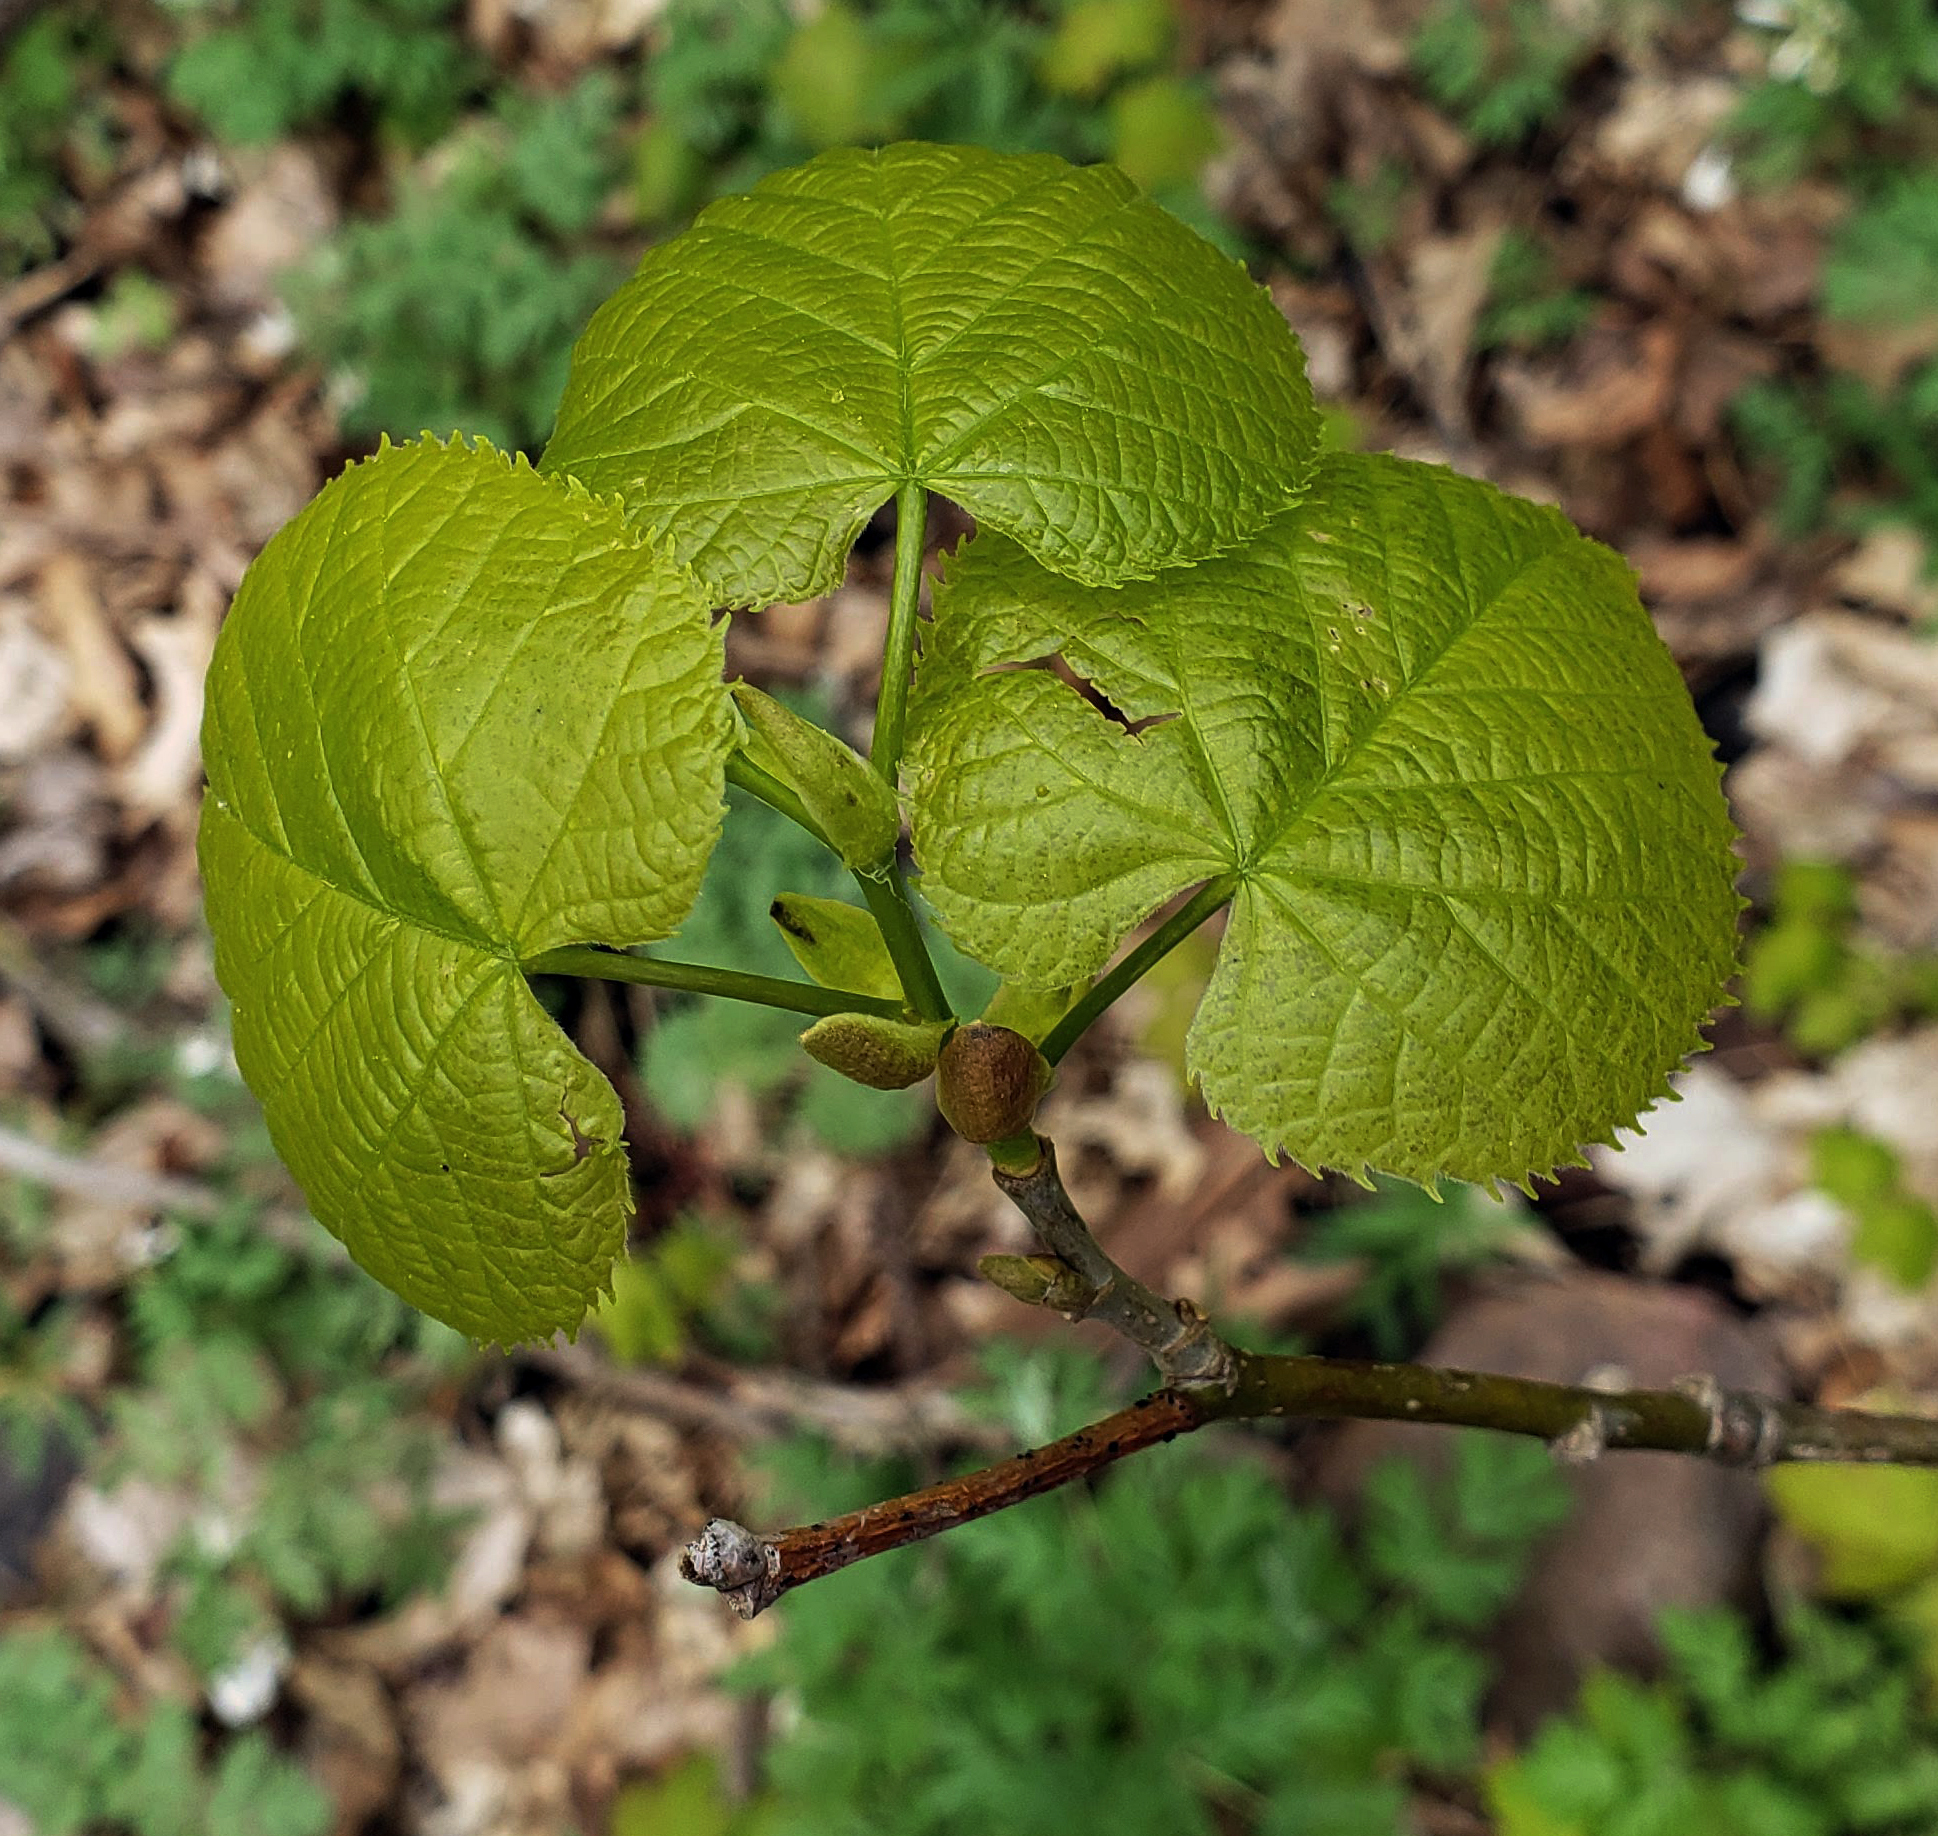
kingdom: Plantae
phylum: Tracheophyta
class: Magnoliopsida
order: Malvales
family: Malvaceae
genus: Tilia
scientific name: Tilia americana
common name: Basswood
